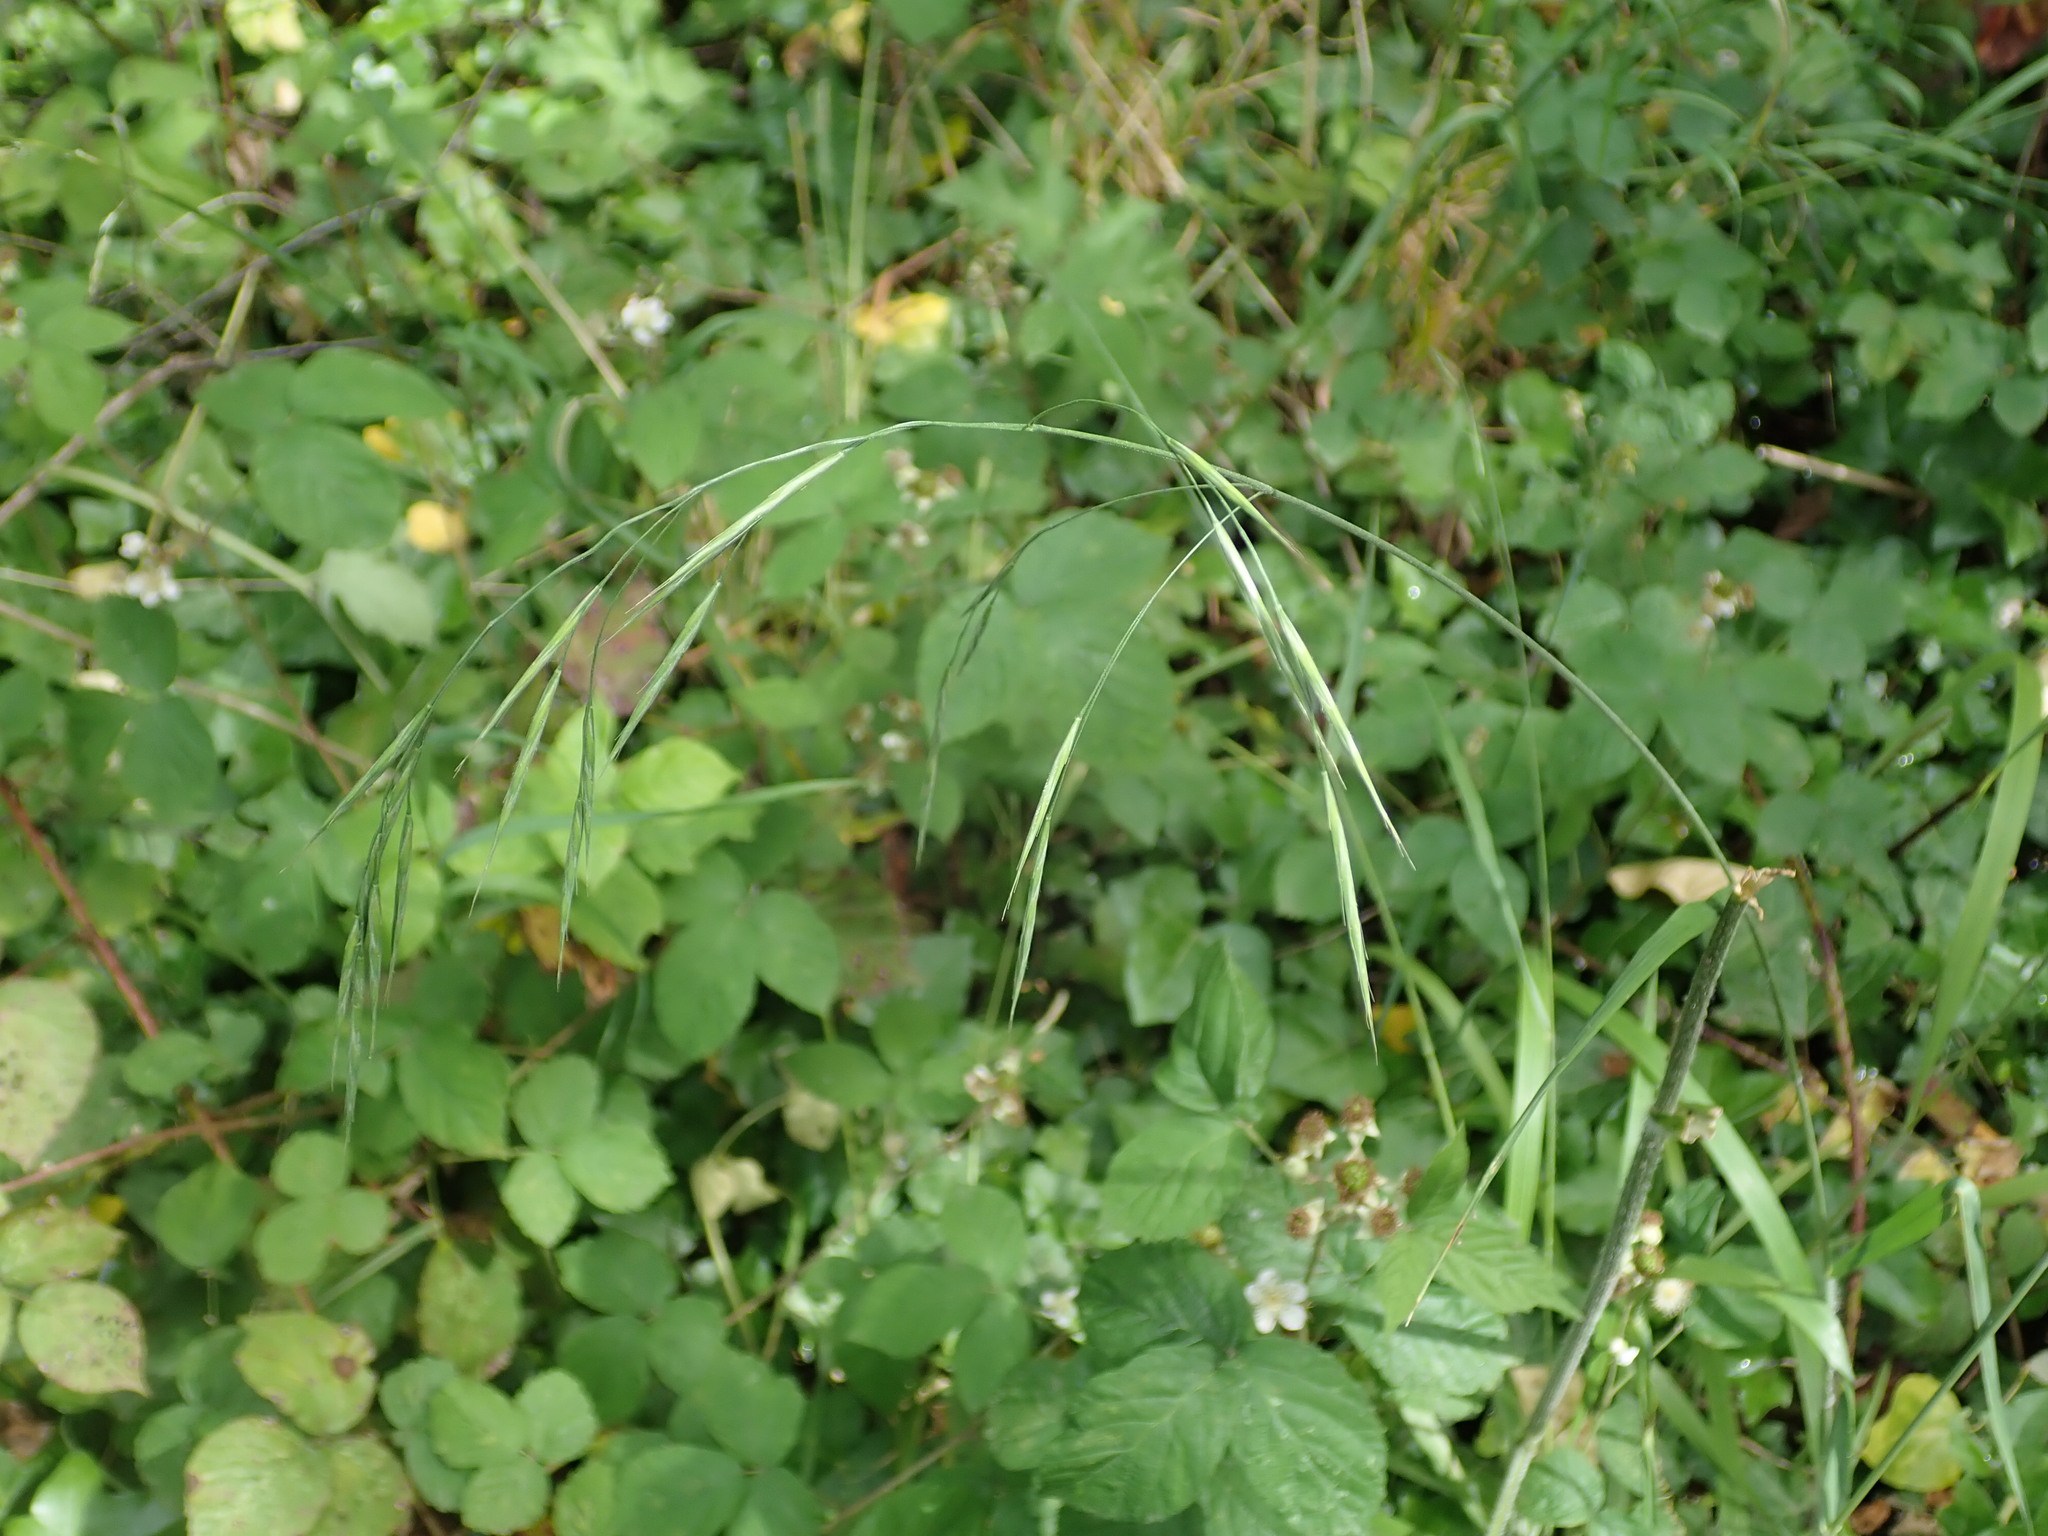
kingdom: Plantae
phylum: Tracheophyta
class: Liliopsida
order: Poales
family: Poaceae
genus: Bromus
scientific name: Bromus ramosus
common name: Hairy brome
